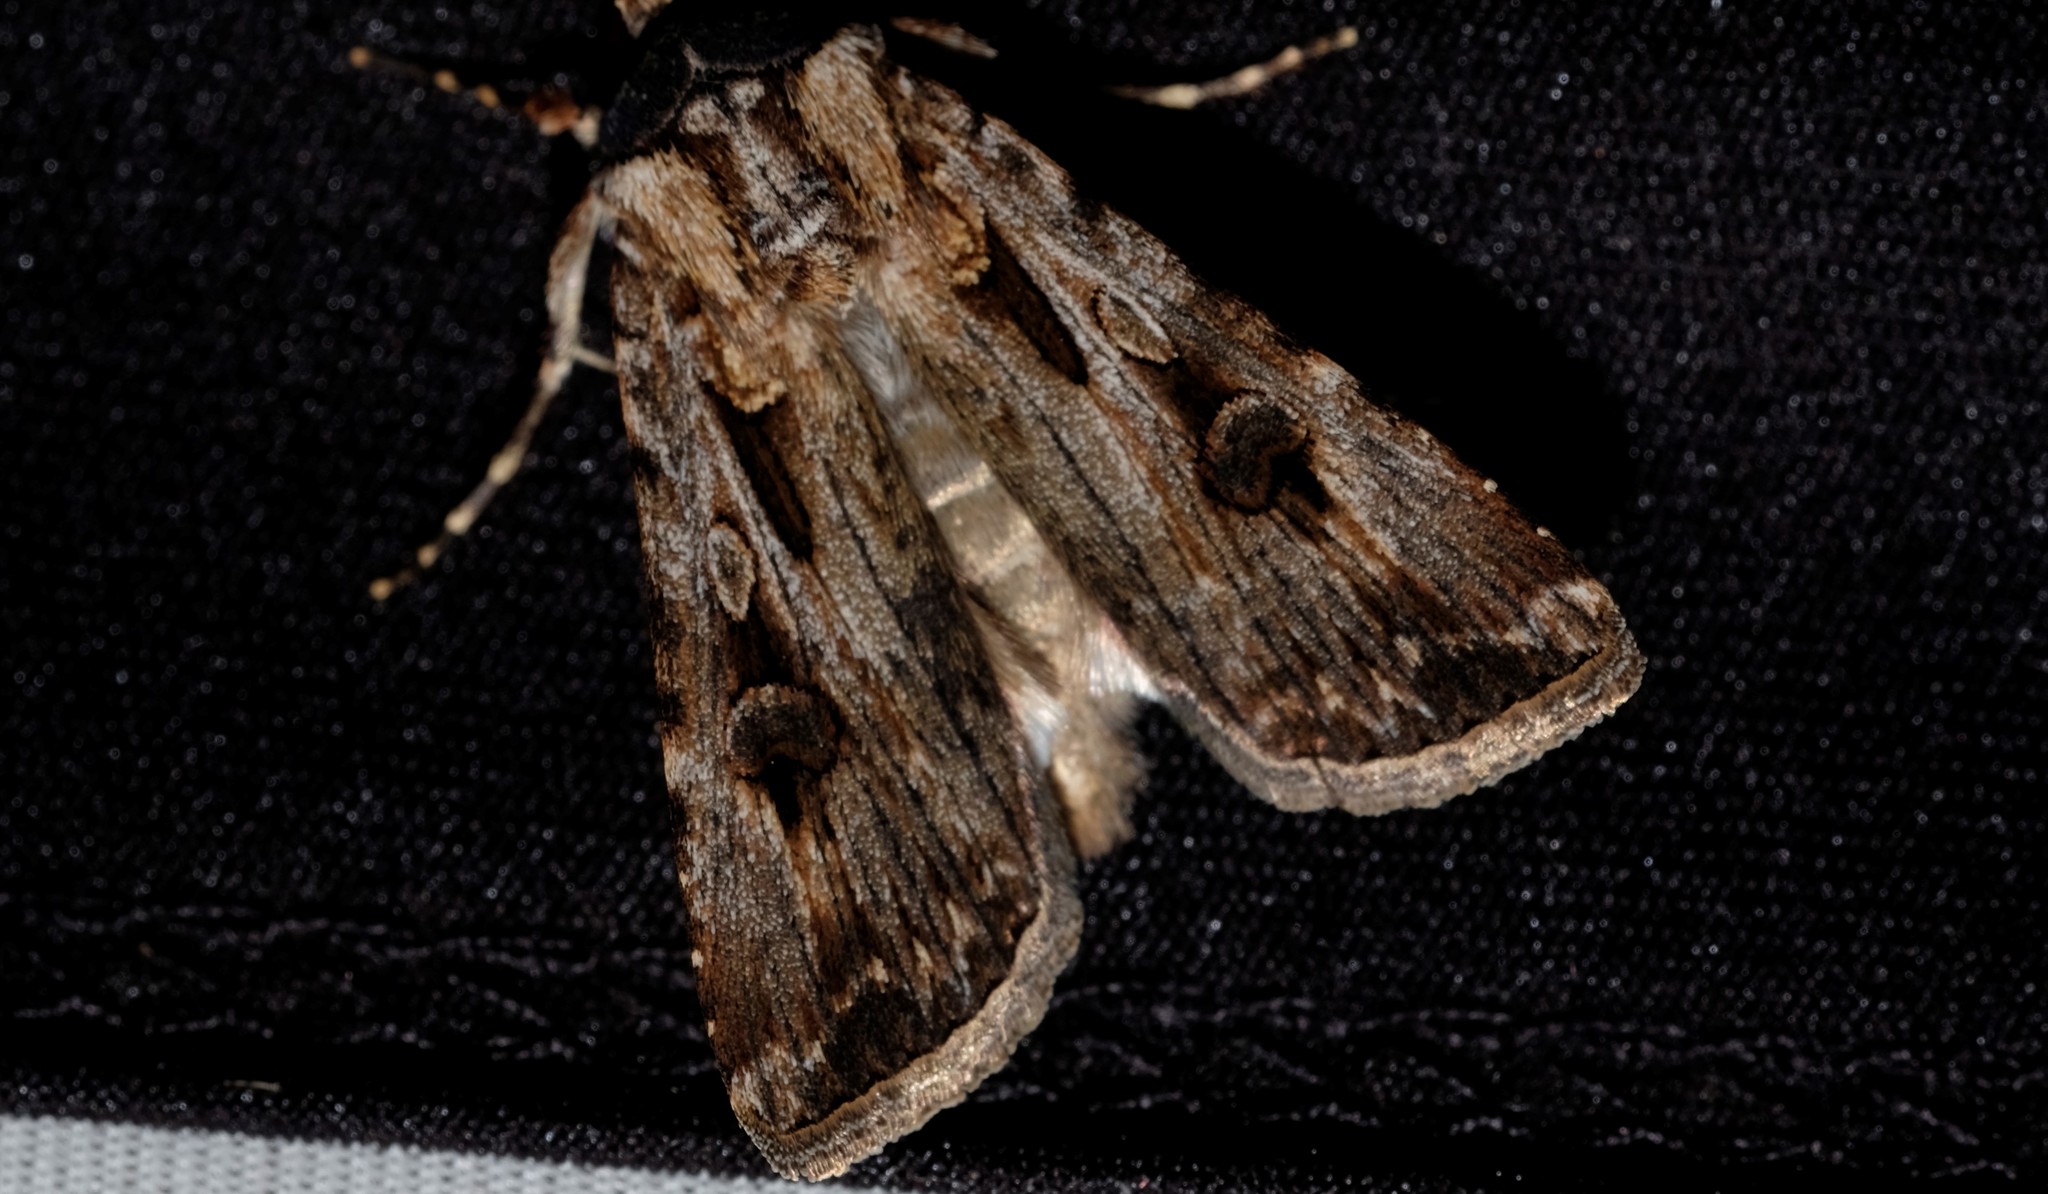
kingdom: Animalia
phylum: Arthropoda
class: Insecta
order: Lepidoptera
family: Noctuidae
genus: Agrotis
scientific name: Agrotis munda
